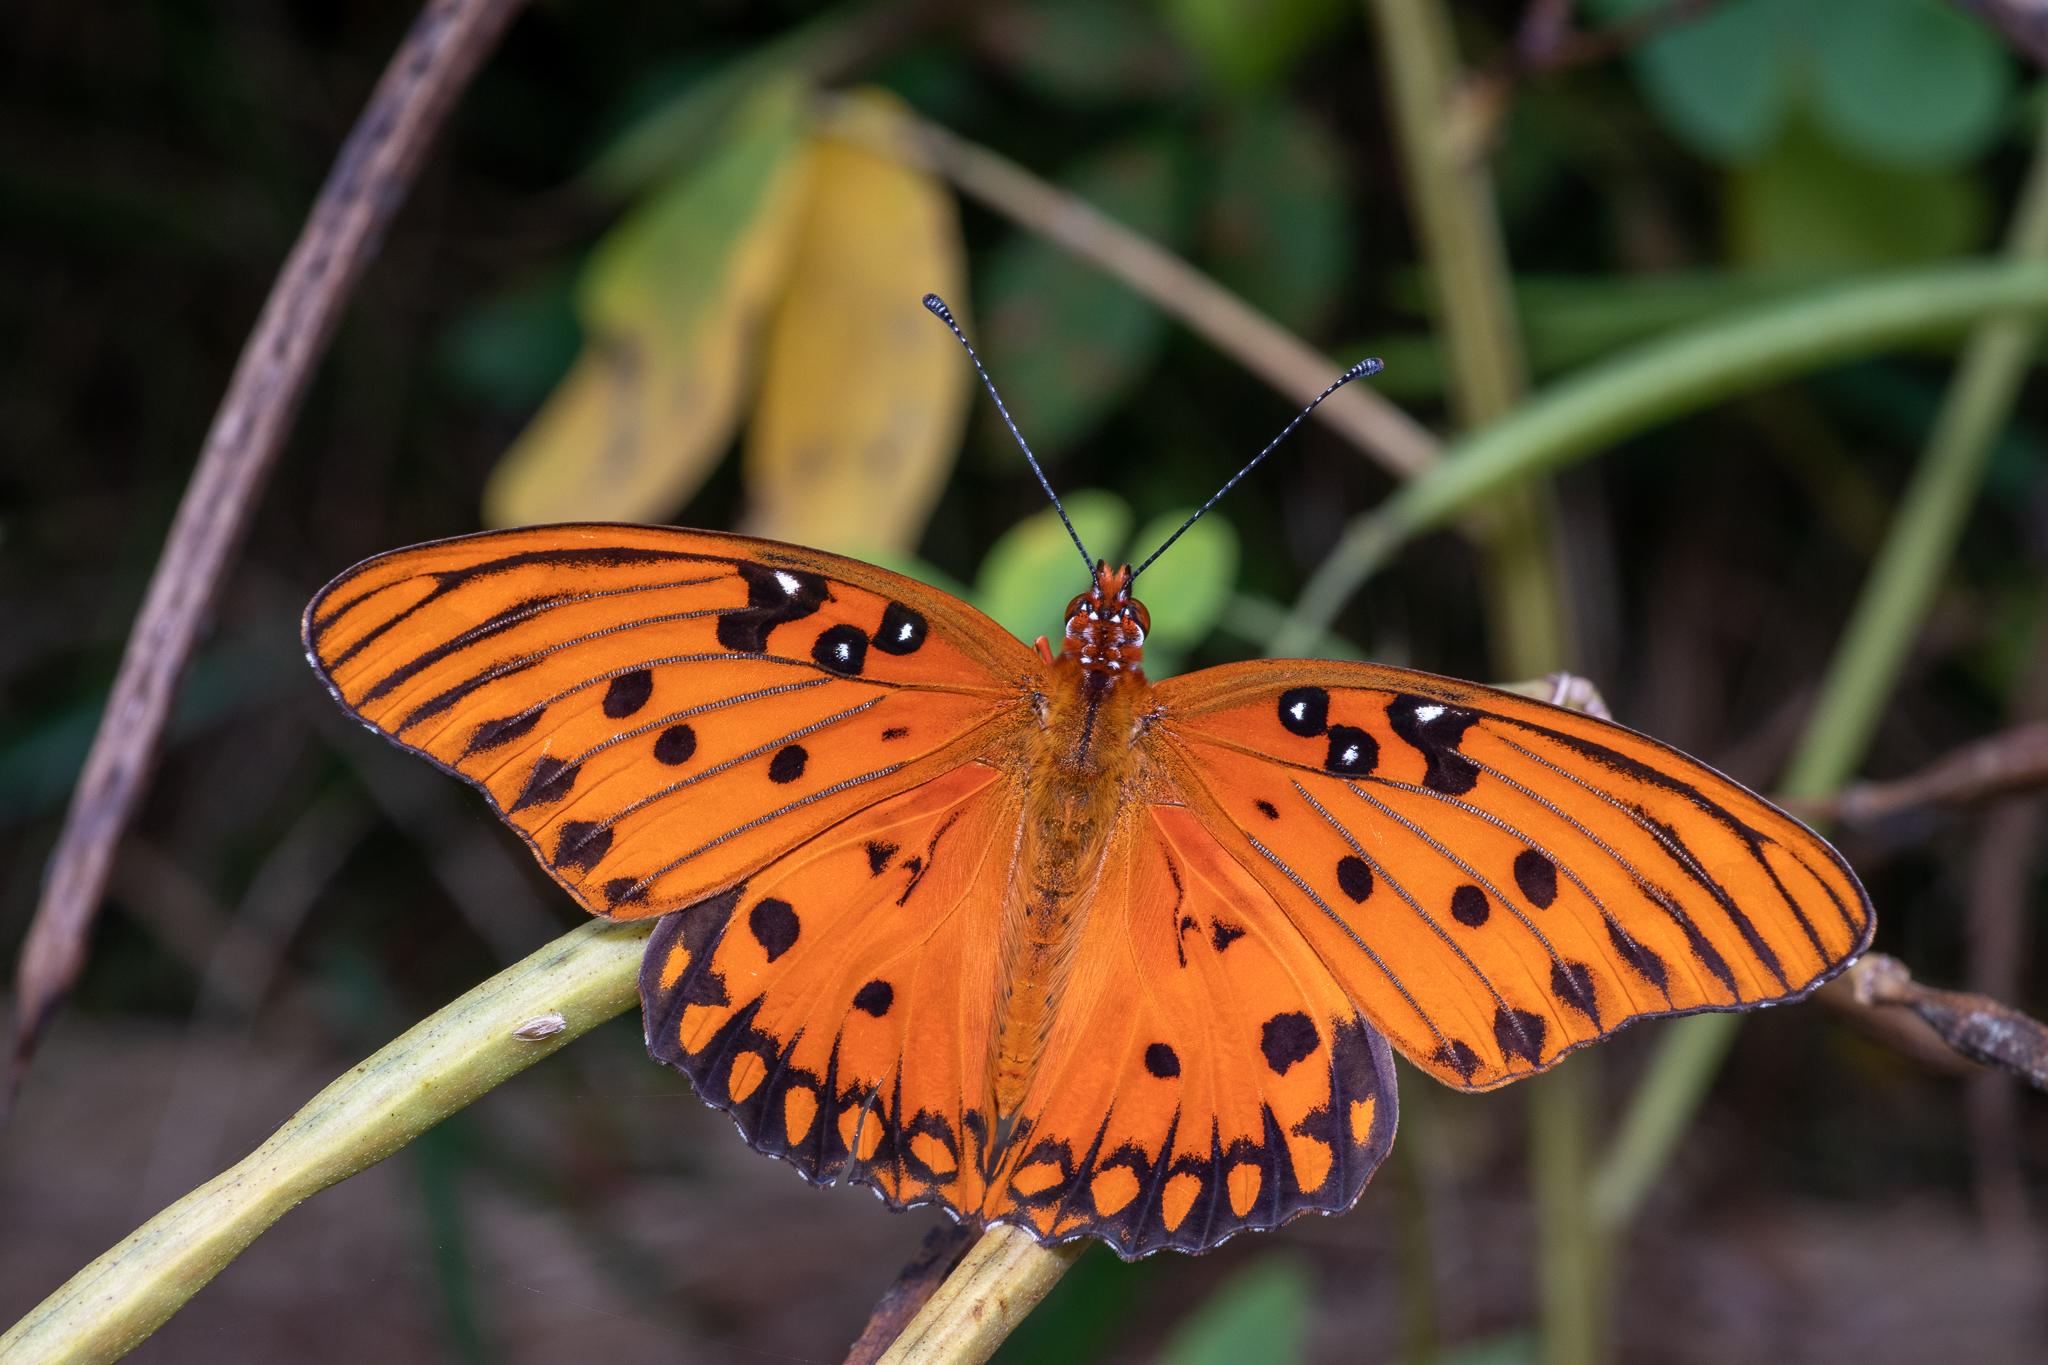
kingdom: Animalia
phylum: Arthropoda
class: Insecta
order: Lepidoptera
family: Nymphalidae
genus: Dione
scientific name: Dione vanillae
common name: Gulf fritillary
